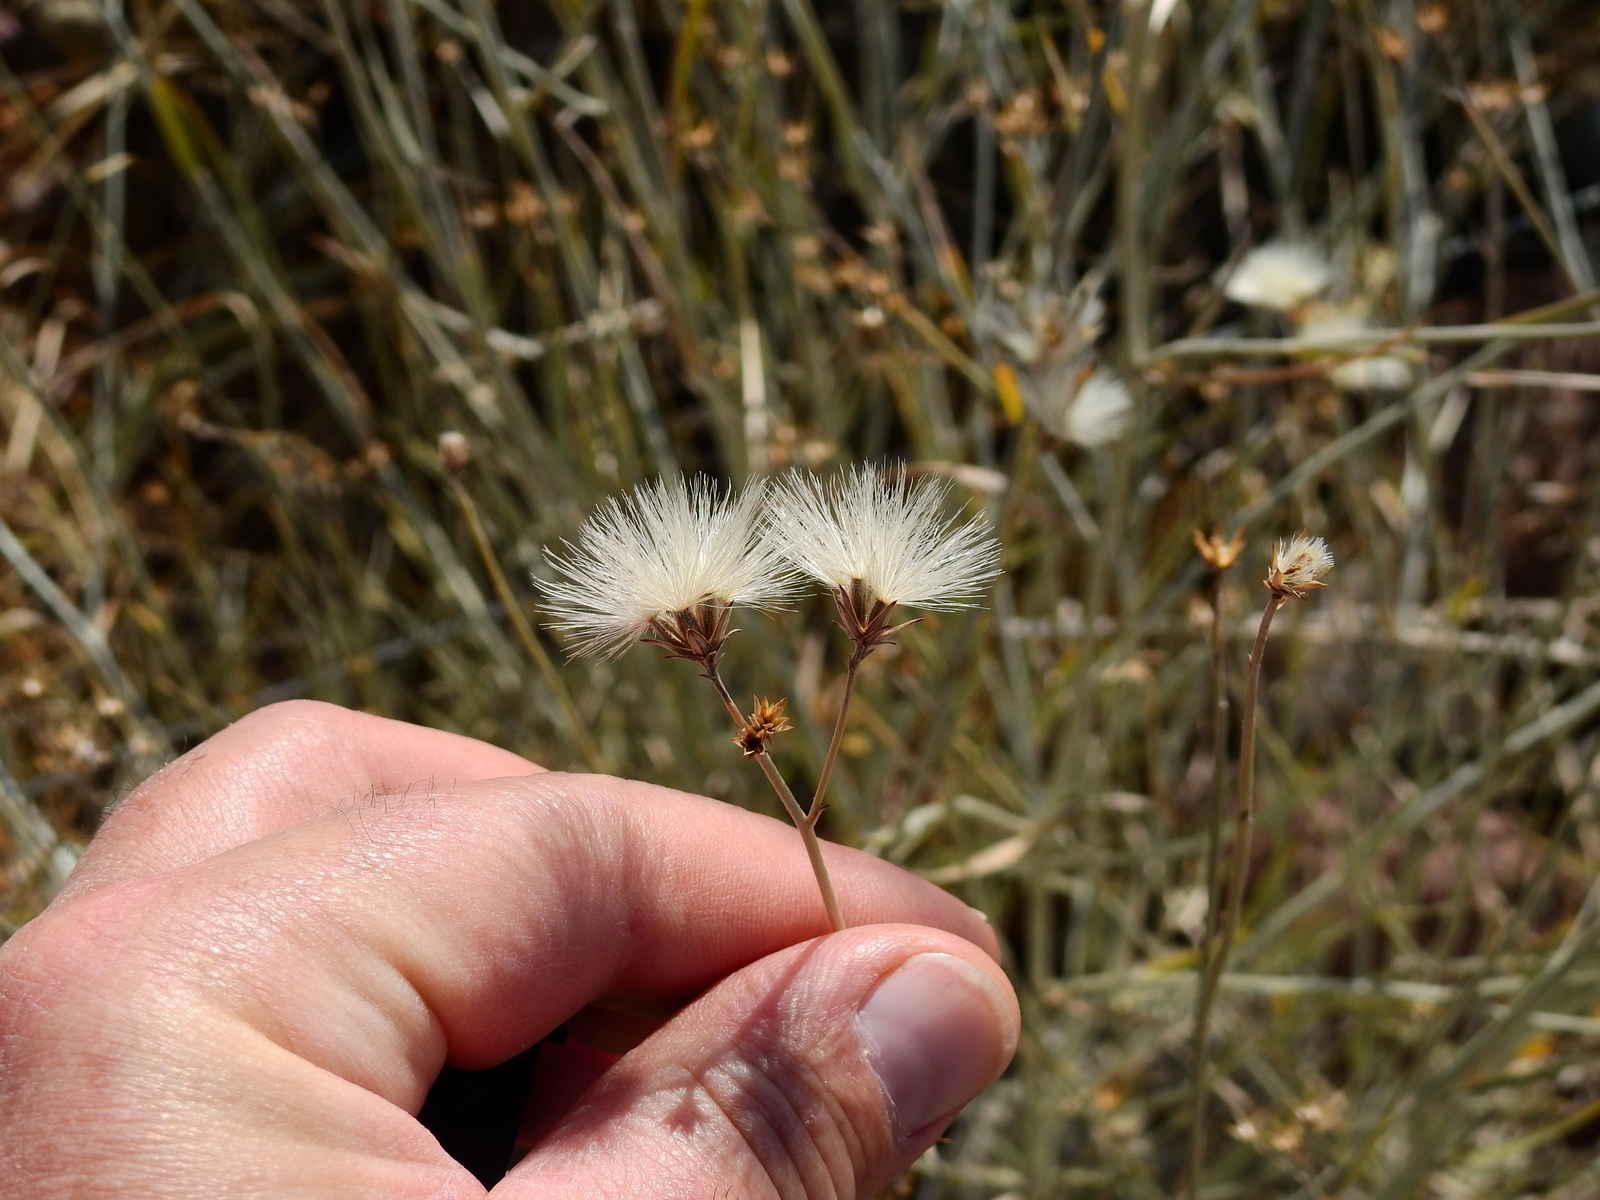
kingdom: Plantae
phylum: Tracheophyta
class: Magnoliopsida
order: Asterales
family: Asteraceae
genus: Hyalis
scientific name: Hyalis argentea
